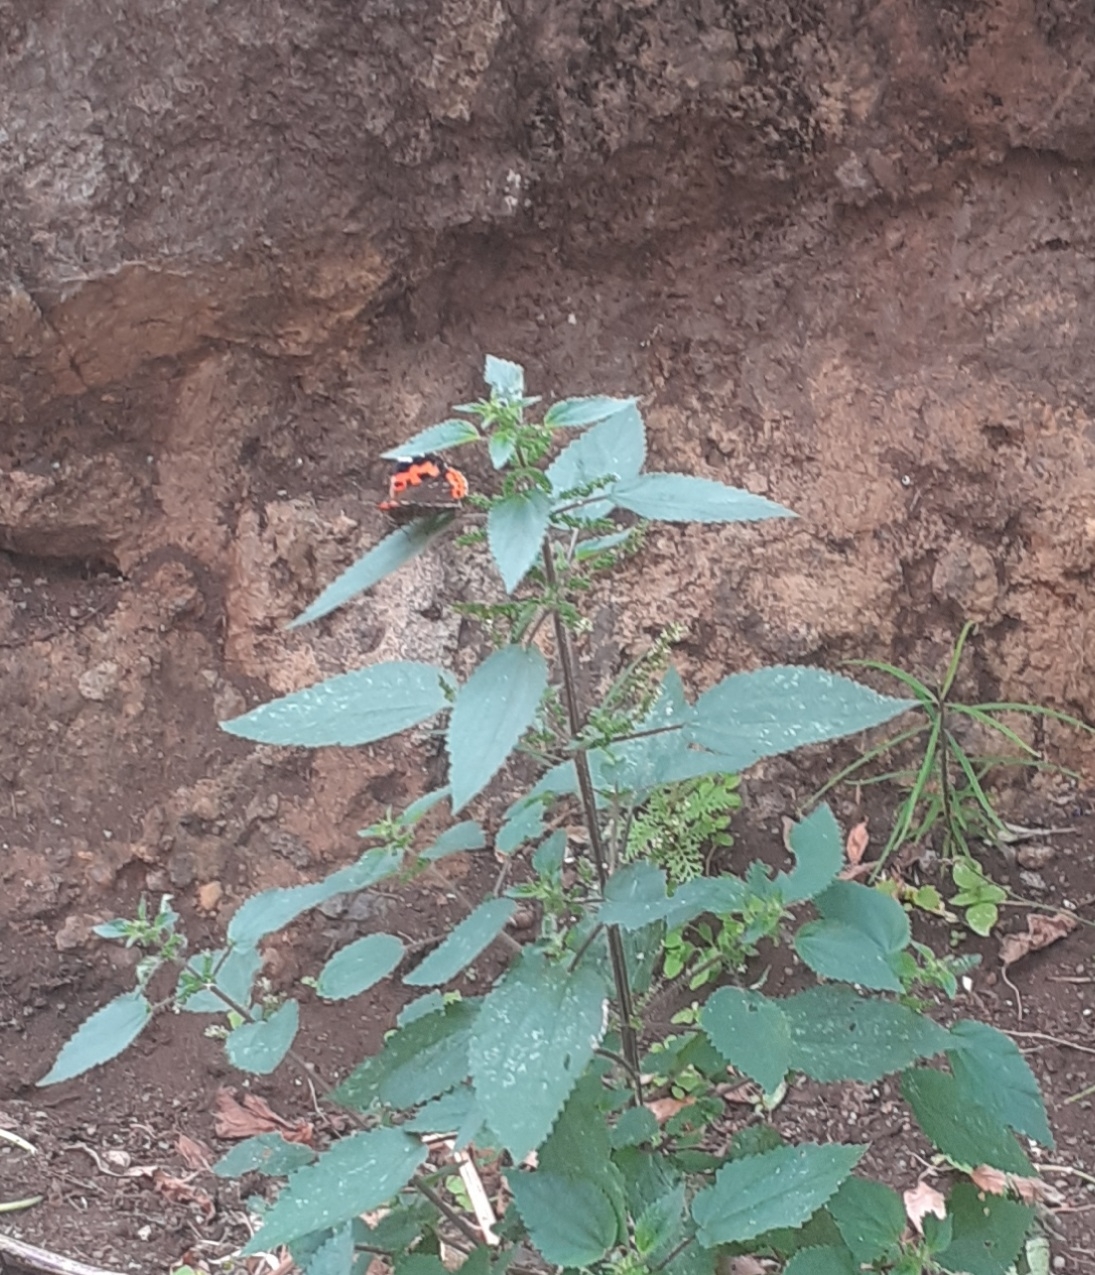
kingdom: Animalia
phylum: Arthropoda
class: Insecta
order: Lepidoptera
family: Nymphalidae
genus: Vanessa
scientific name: Vanessa vulcania
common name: Canary red admiral
